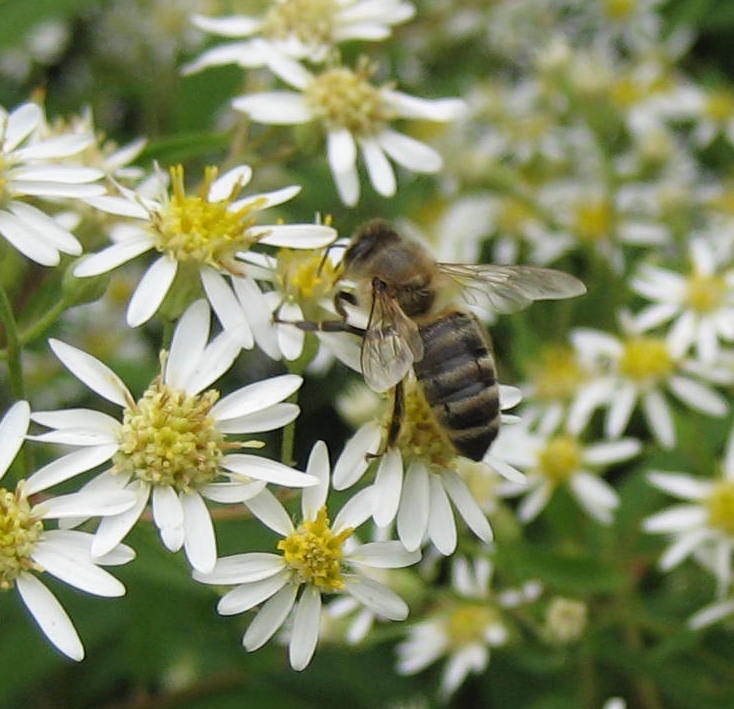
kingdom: Animalia
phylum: Arthropoda
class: Insecta
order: Hymenoptera
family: Apidae
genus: Apis
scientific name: Apis mellifera
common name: Honey bee
